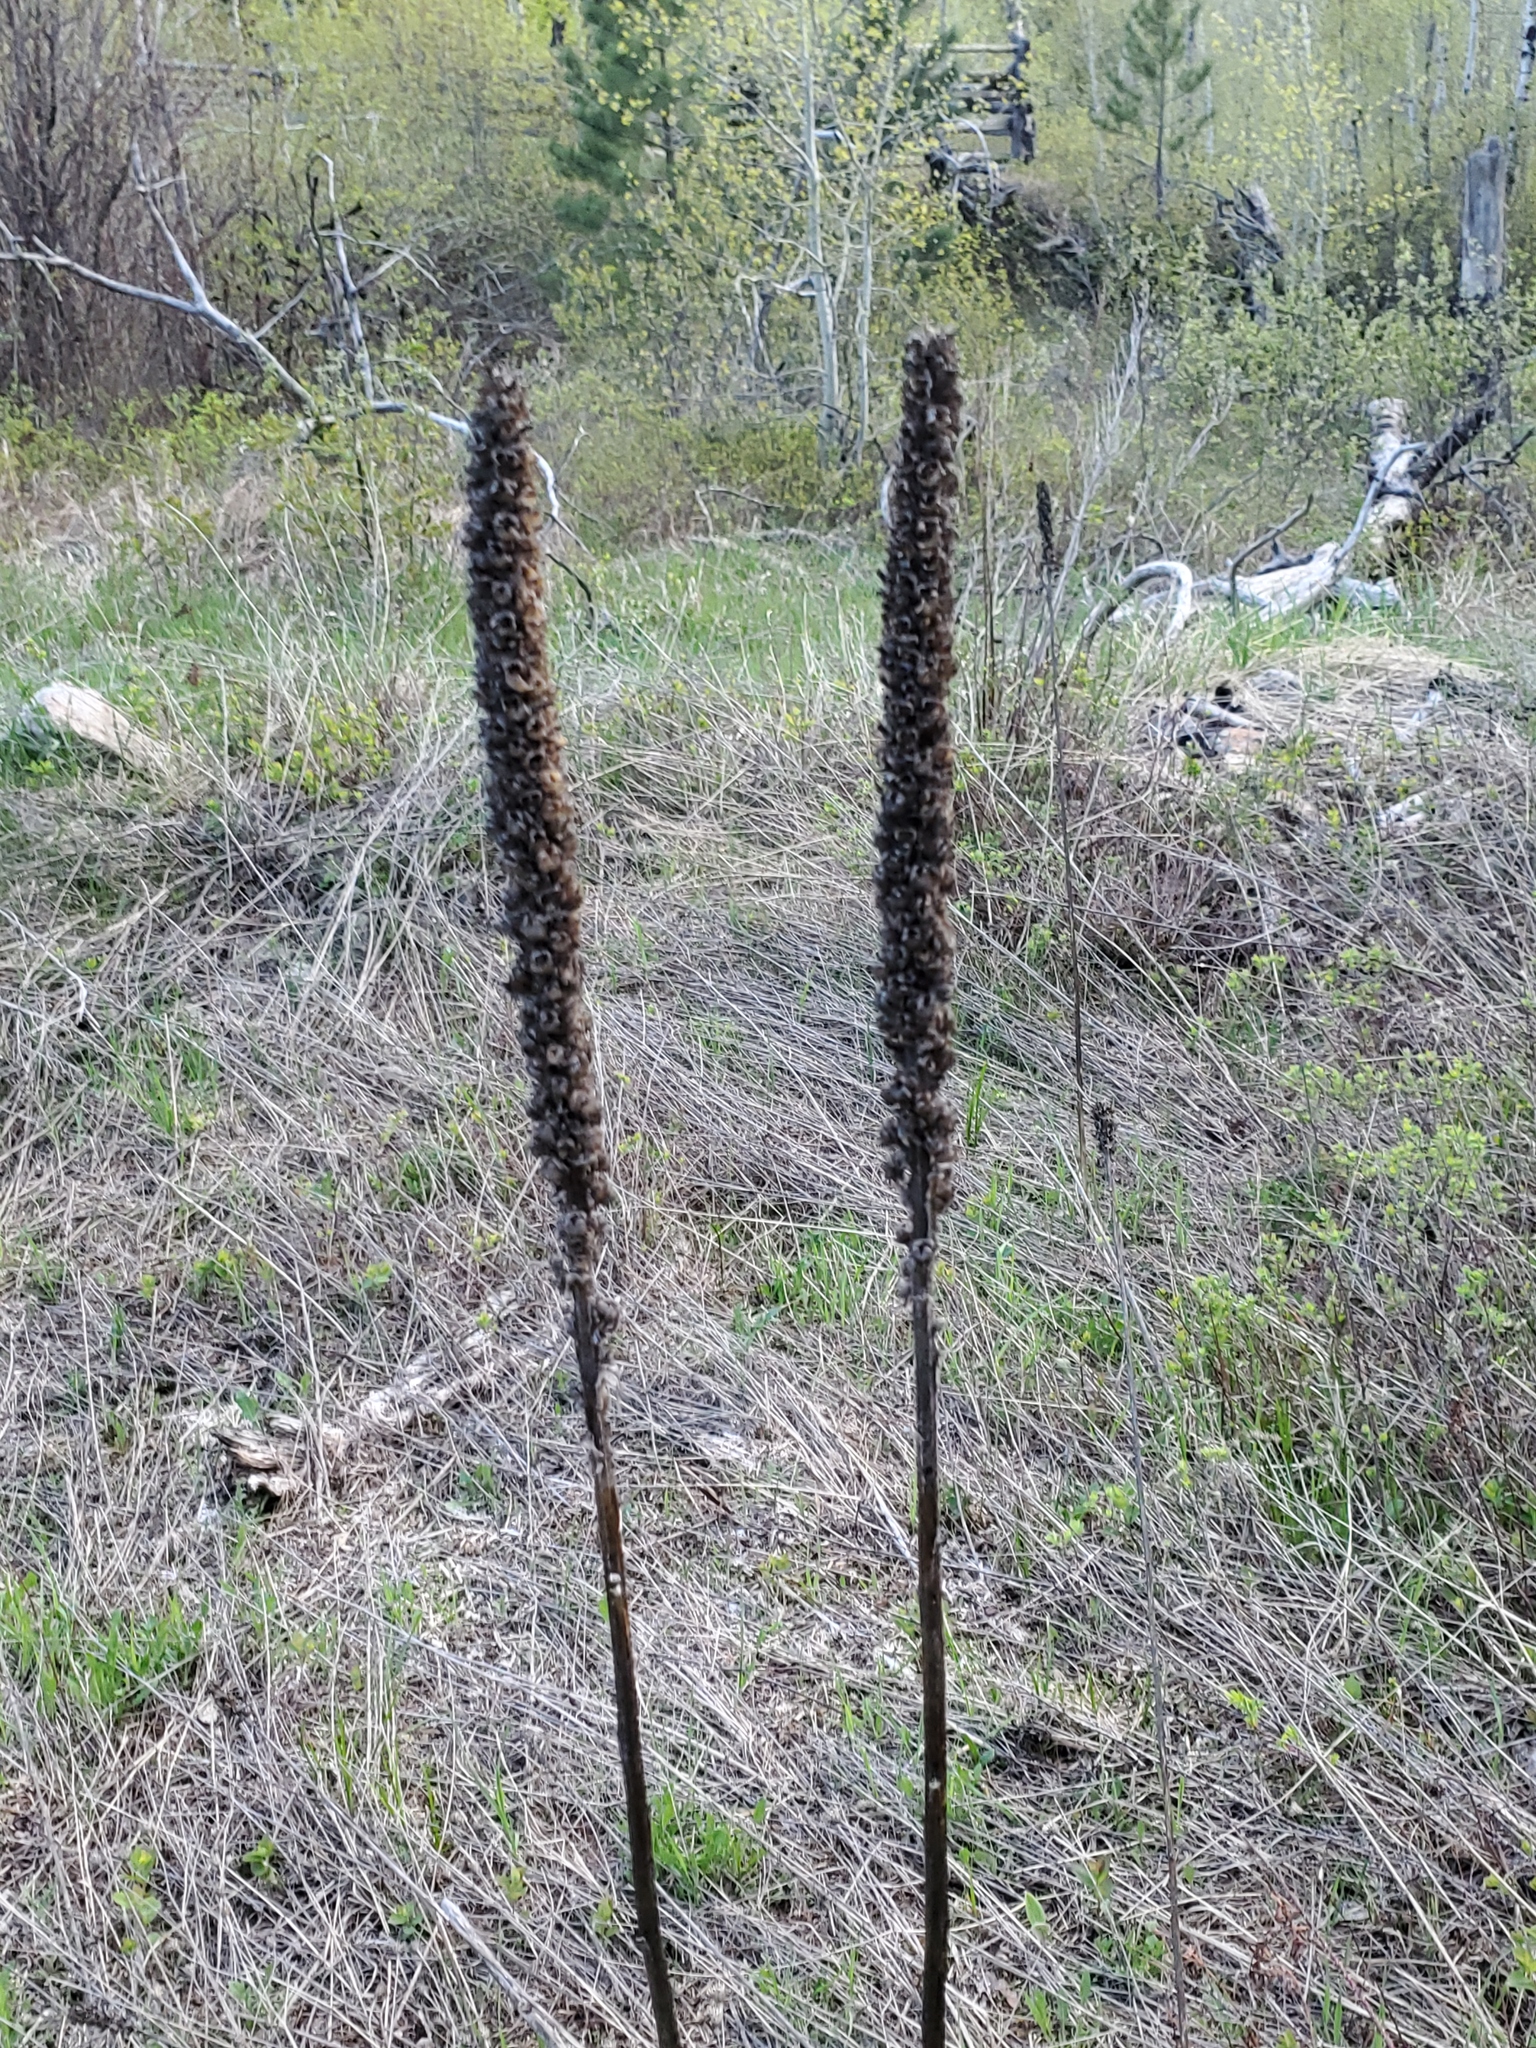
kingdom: Plantae
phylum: Tracheophyta
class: Magnoliopsida
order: Lamiales
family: Scrophulariaceae
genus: Verbascum
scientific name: Verbascum thapsus
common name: Common mullein
